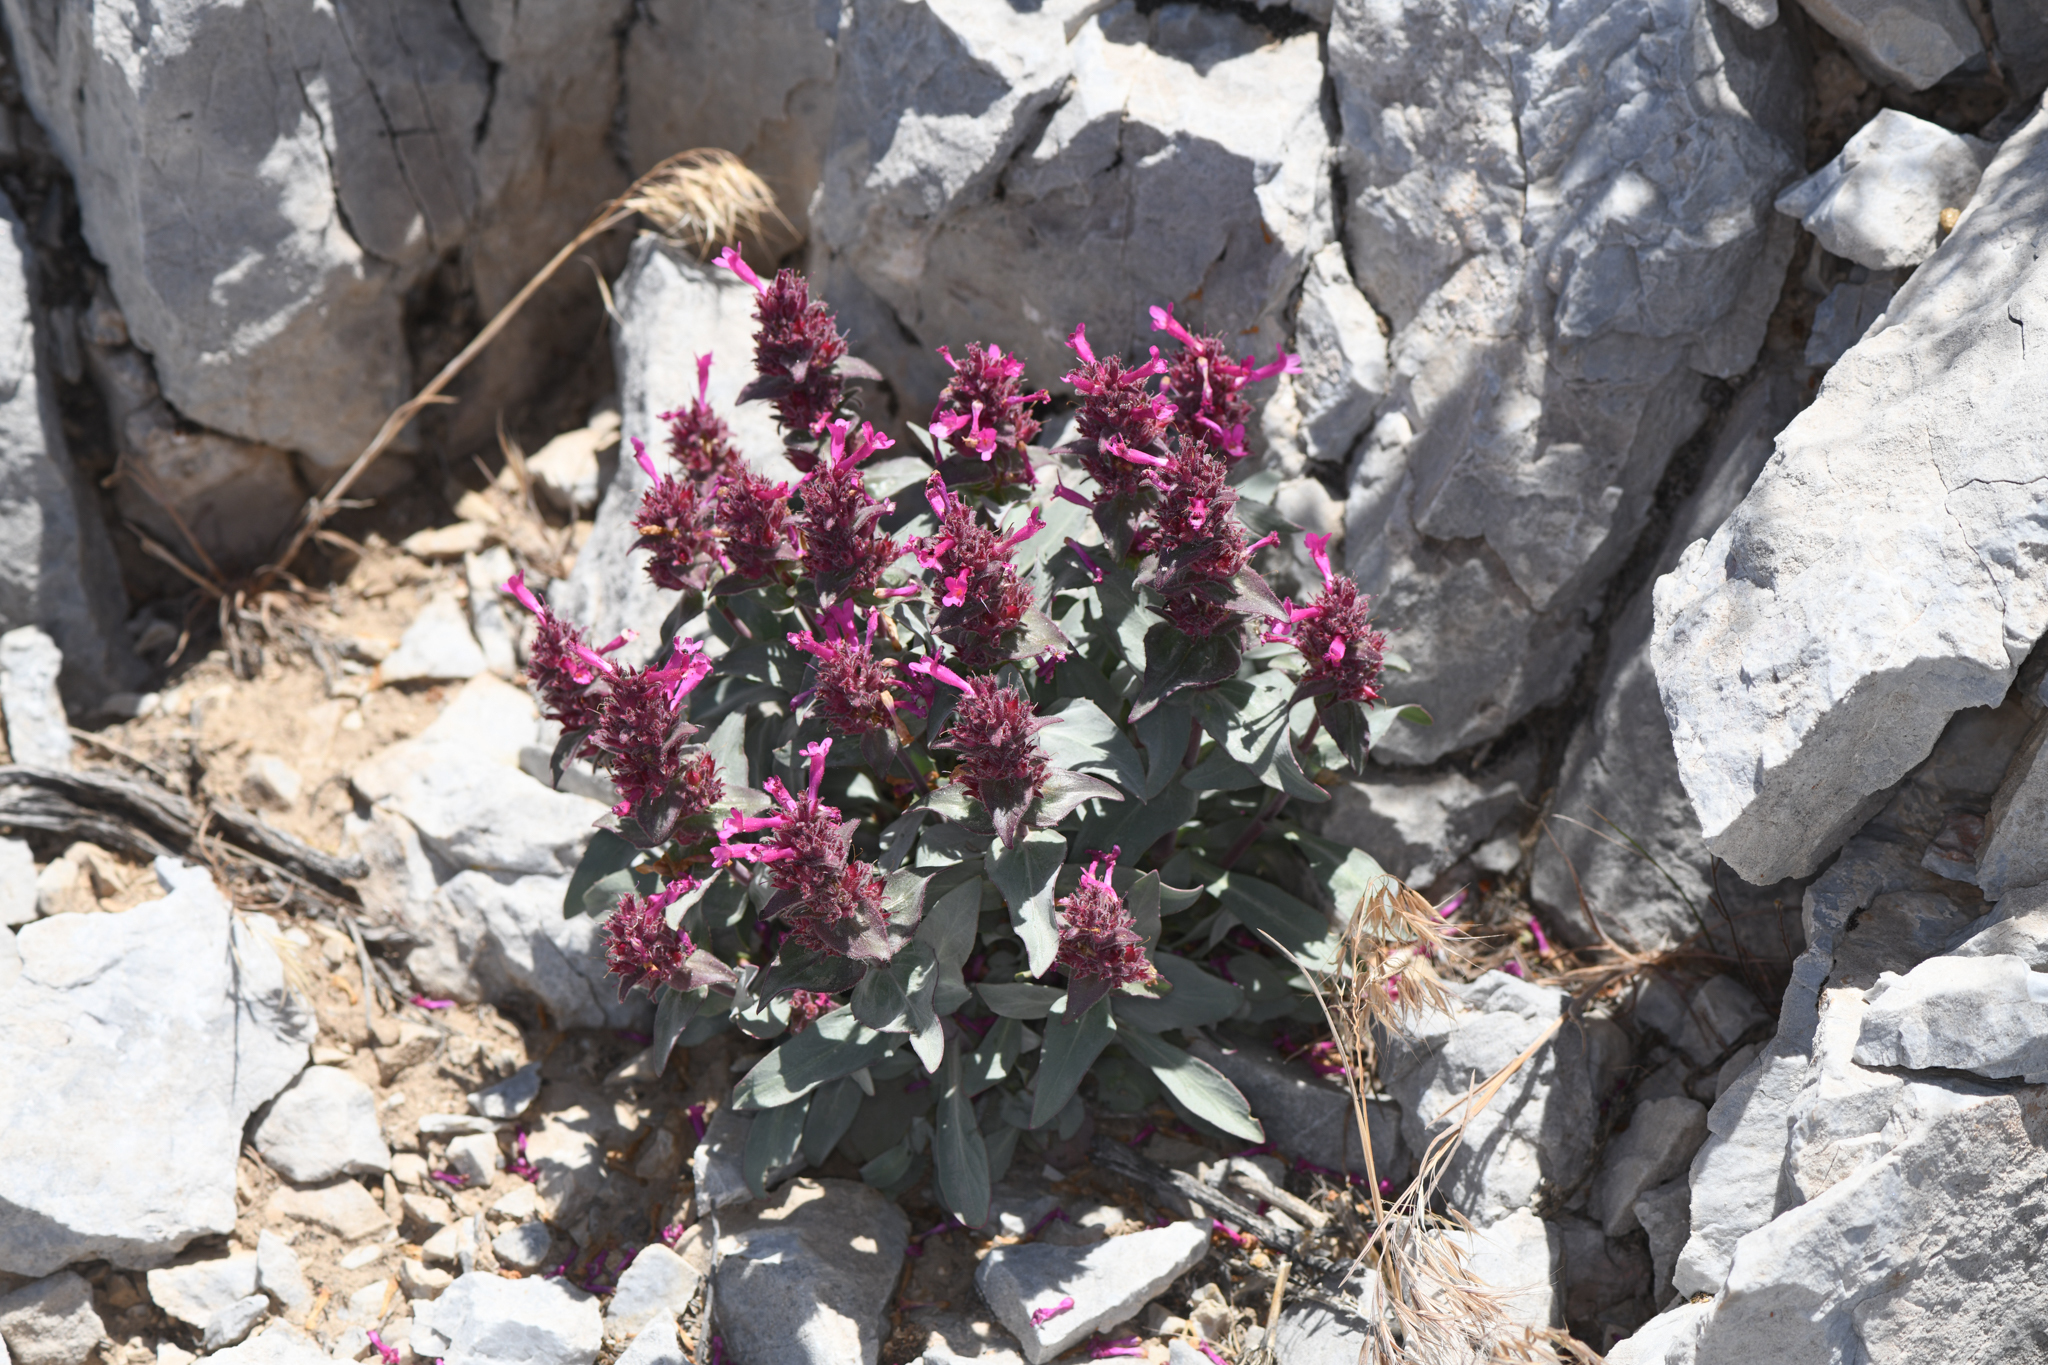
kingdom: Plantae
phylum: Tracheophyta
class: Magnoliopsida
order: Lamiales
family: Plantaginaceae
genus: Penstemon
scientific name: Penstemon calcareus
